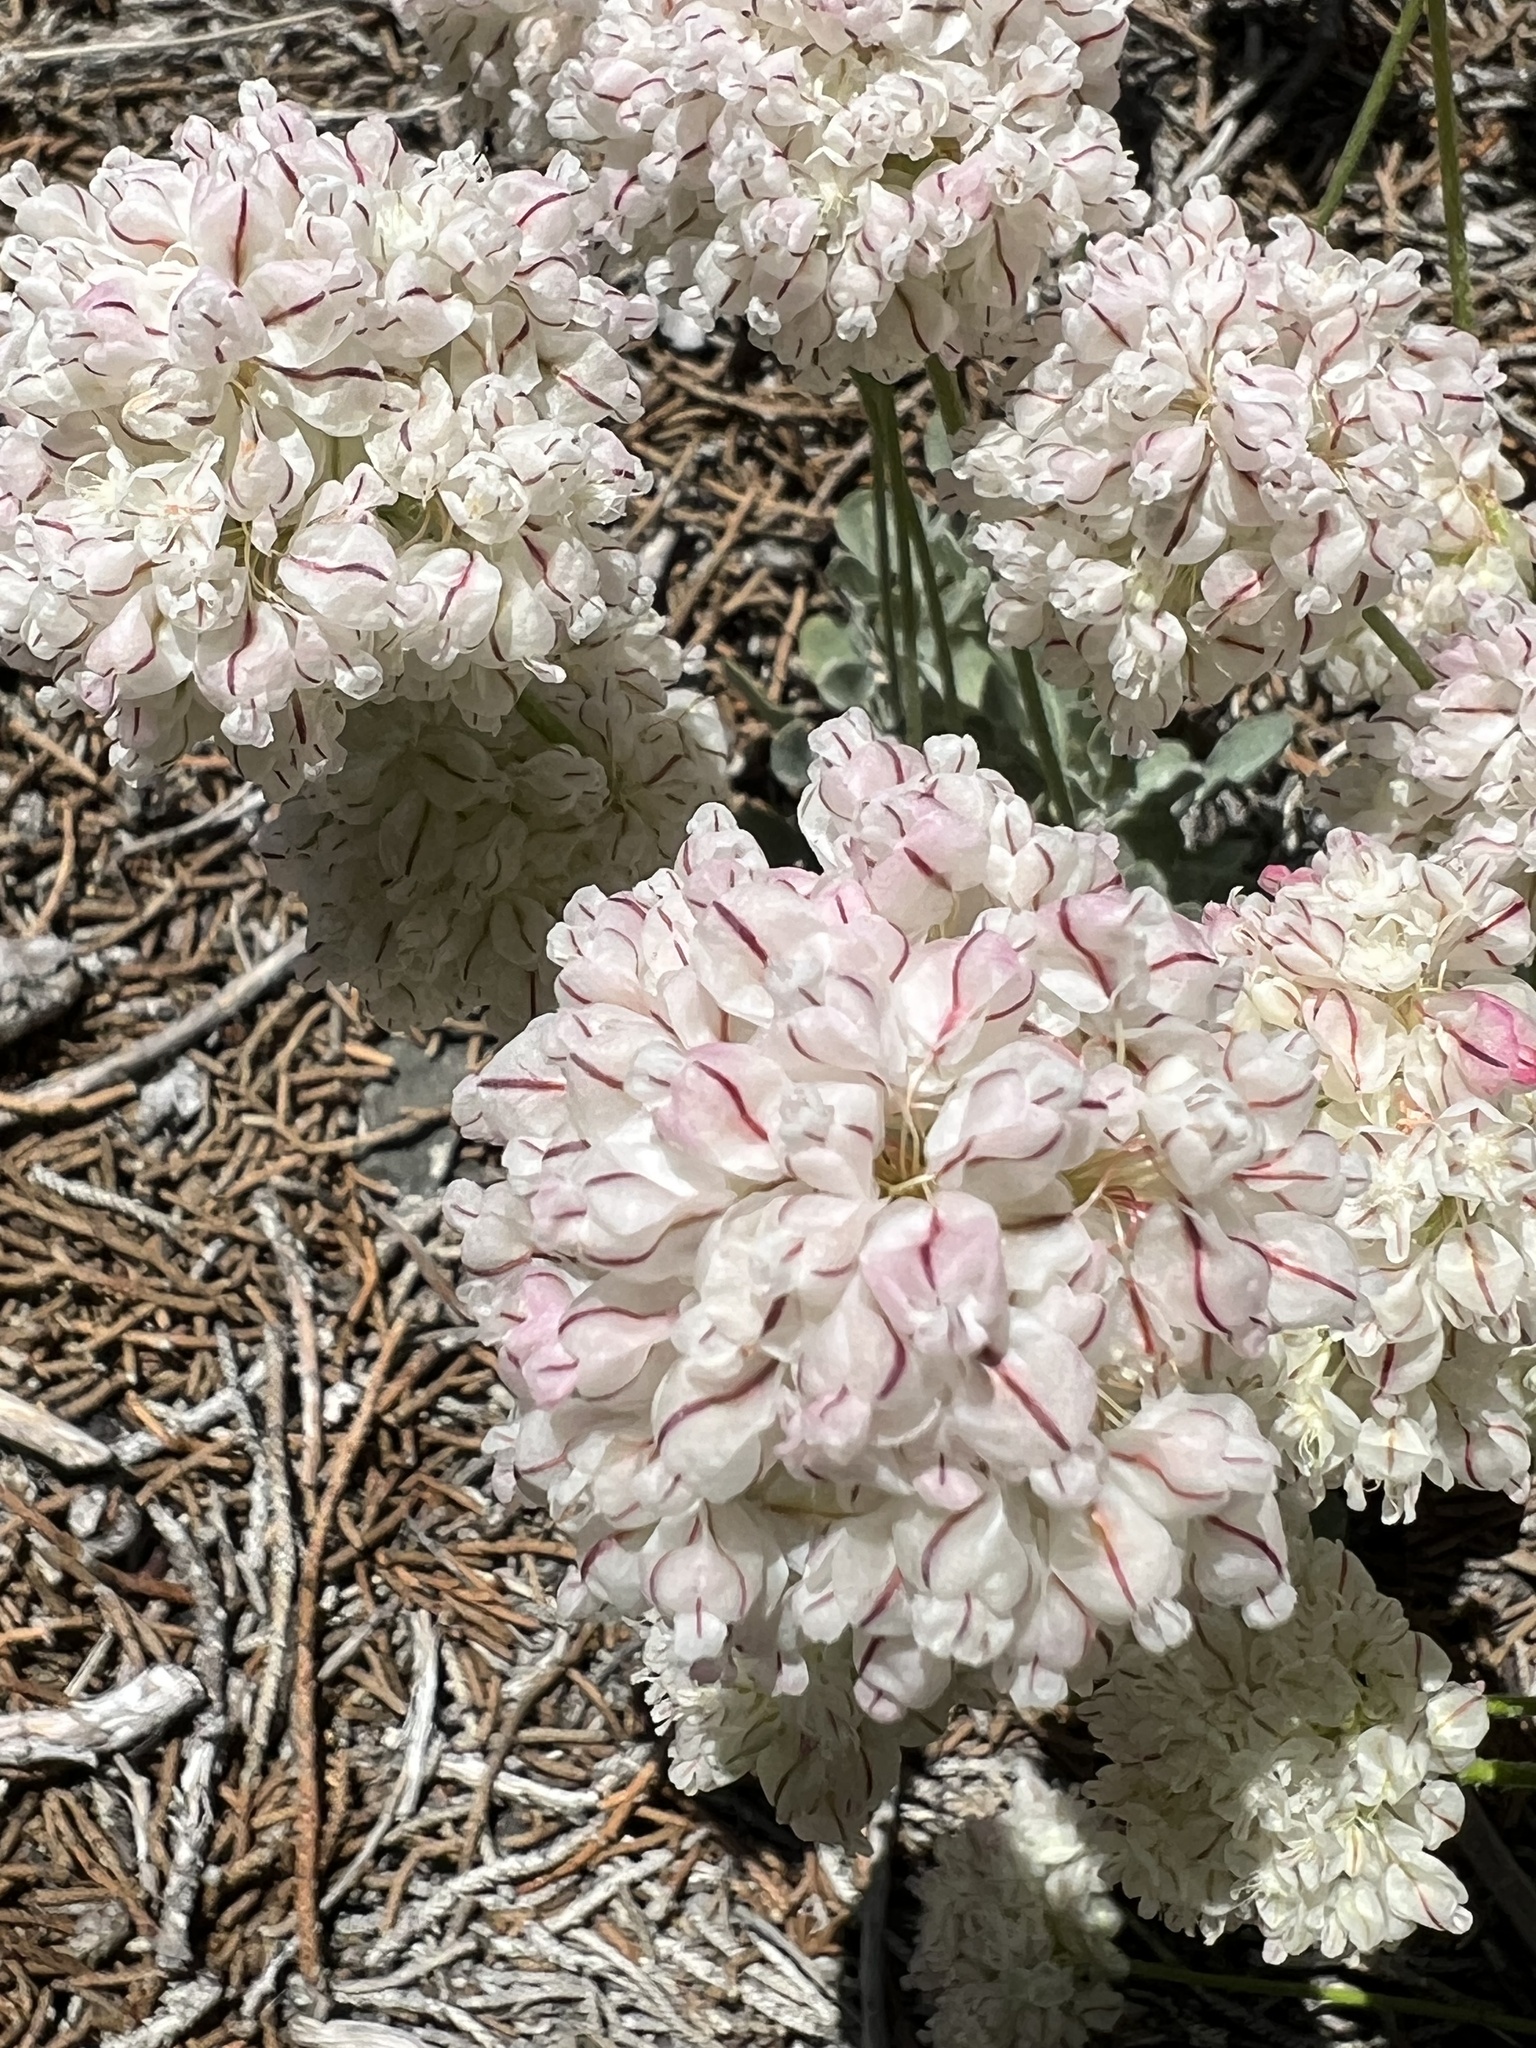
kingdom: Plantae
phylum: Tracheophyta
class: Magnoliopsida
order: Caryophyllales
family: Polygonaceae
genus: Eriogonum
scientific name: Eriogonum ovalifolium
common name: Cushion buckwheat
